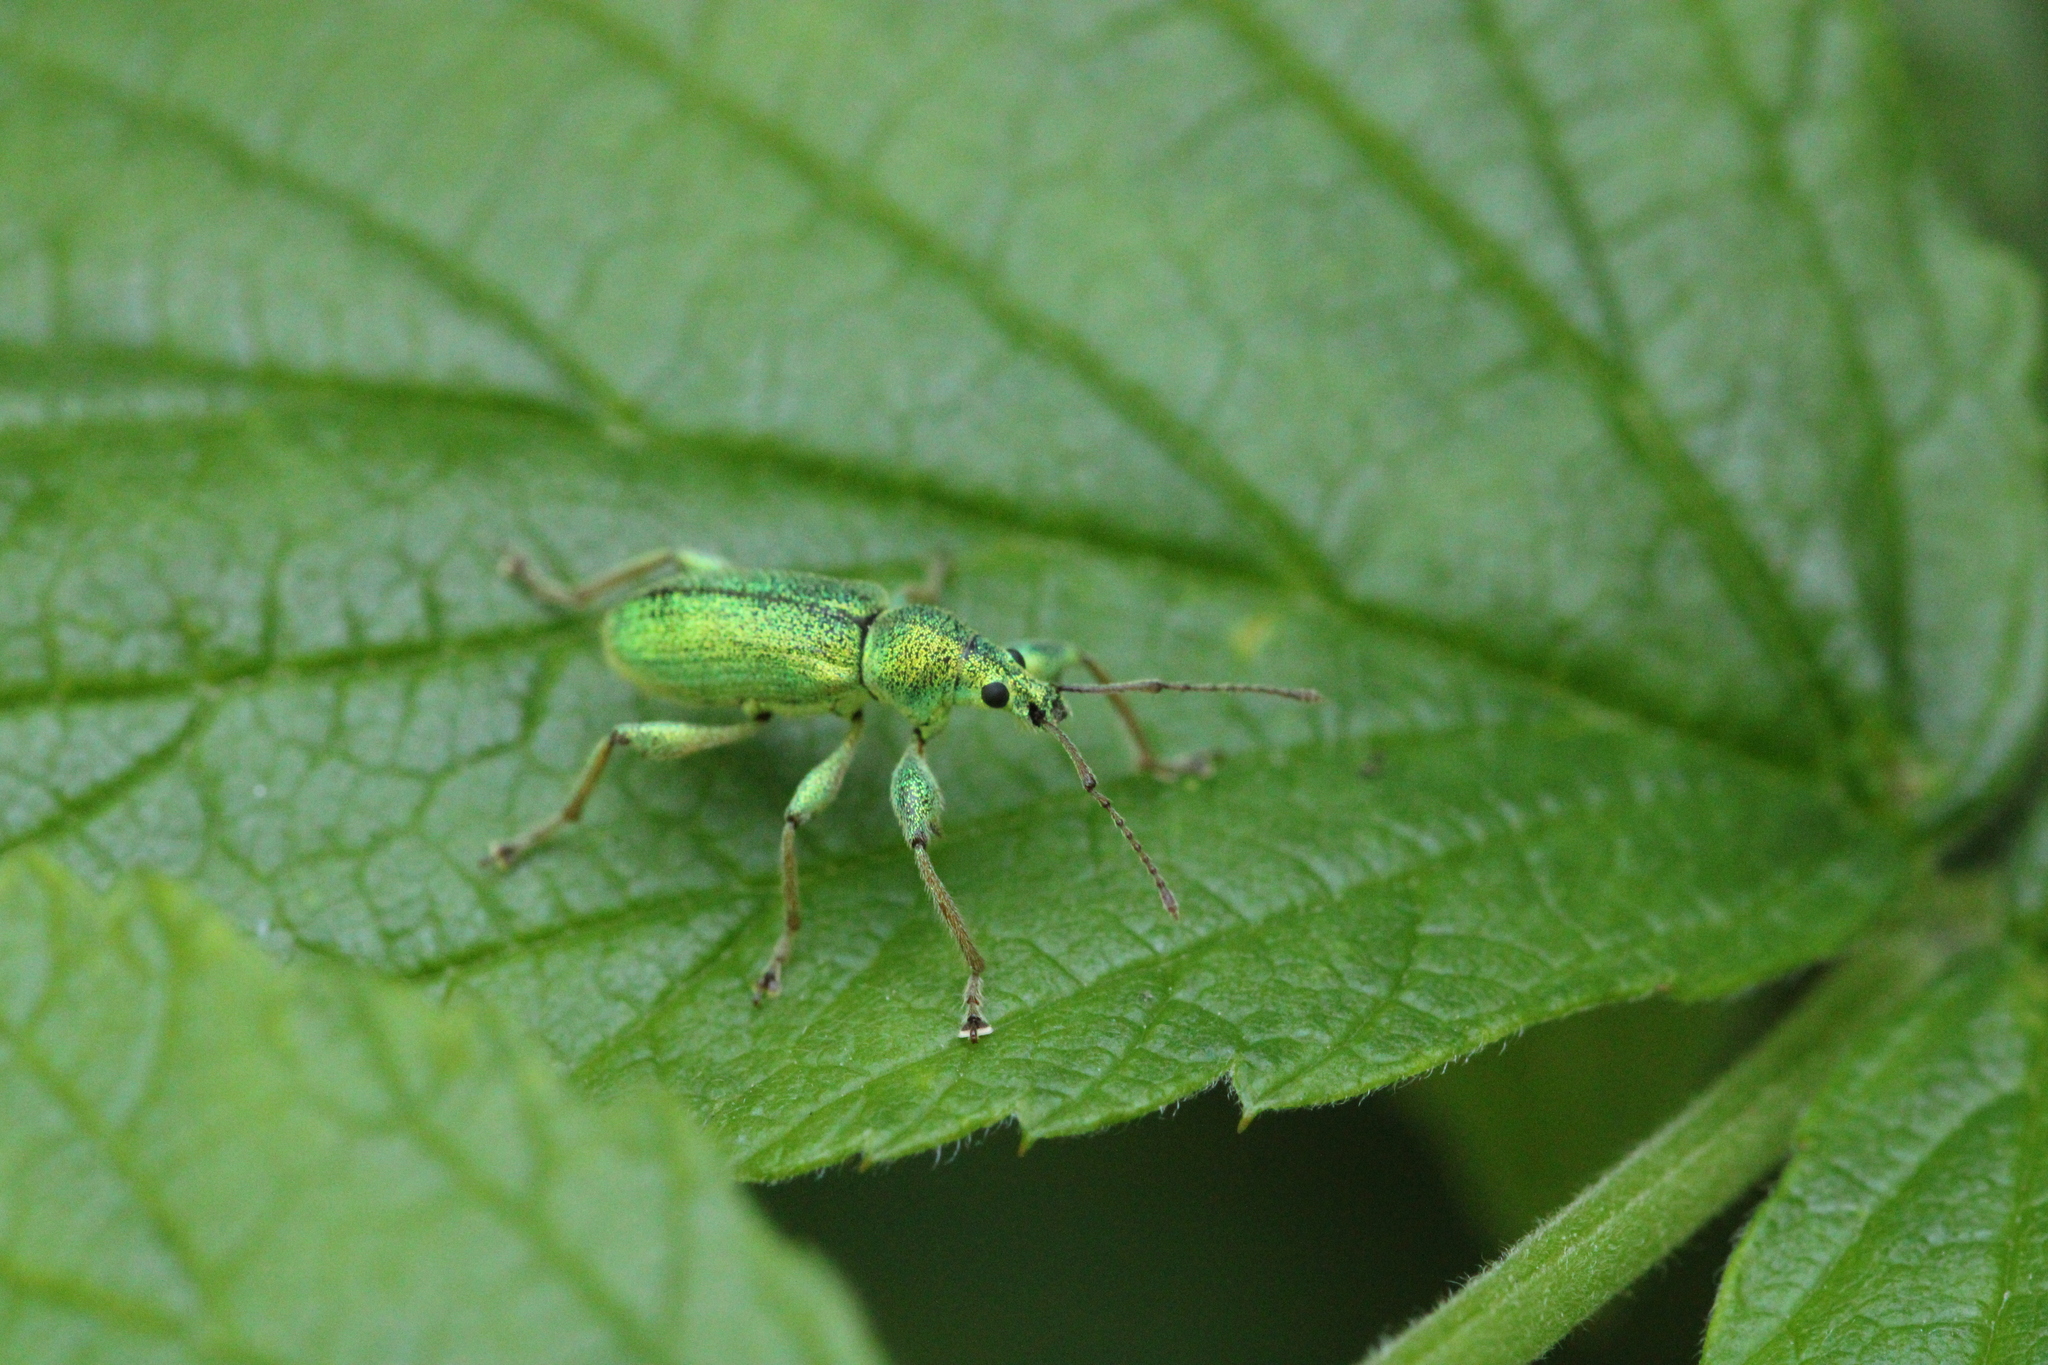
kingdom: Animalia
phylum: Arthropoda
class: Insecta
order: Coleoptera
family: Curculionidae
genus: Phyllobius
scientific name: Phyllobius arborator
